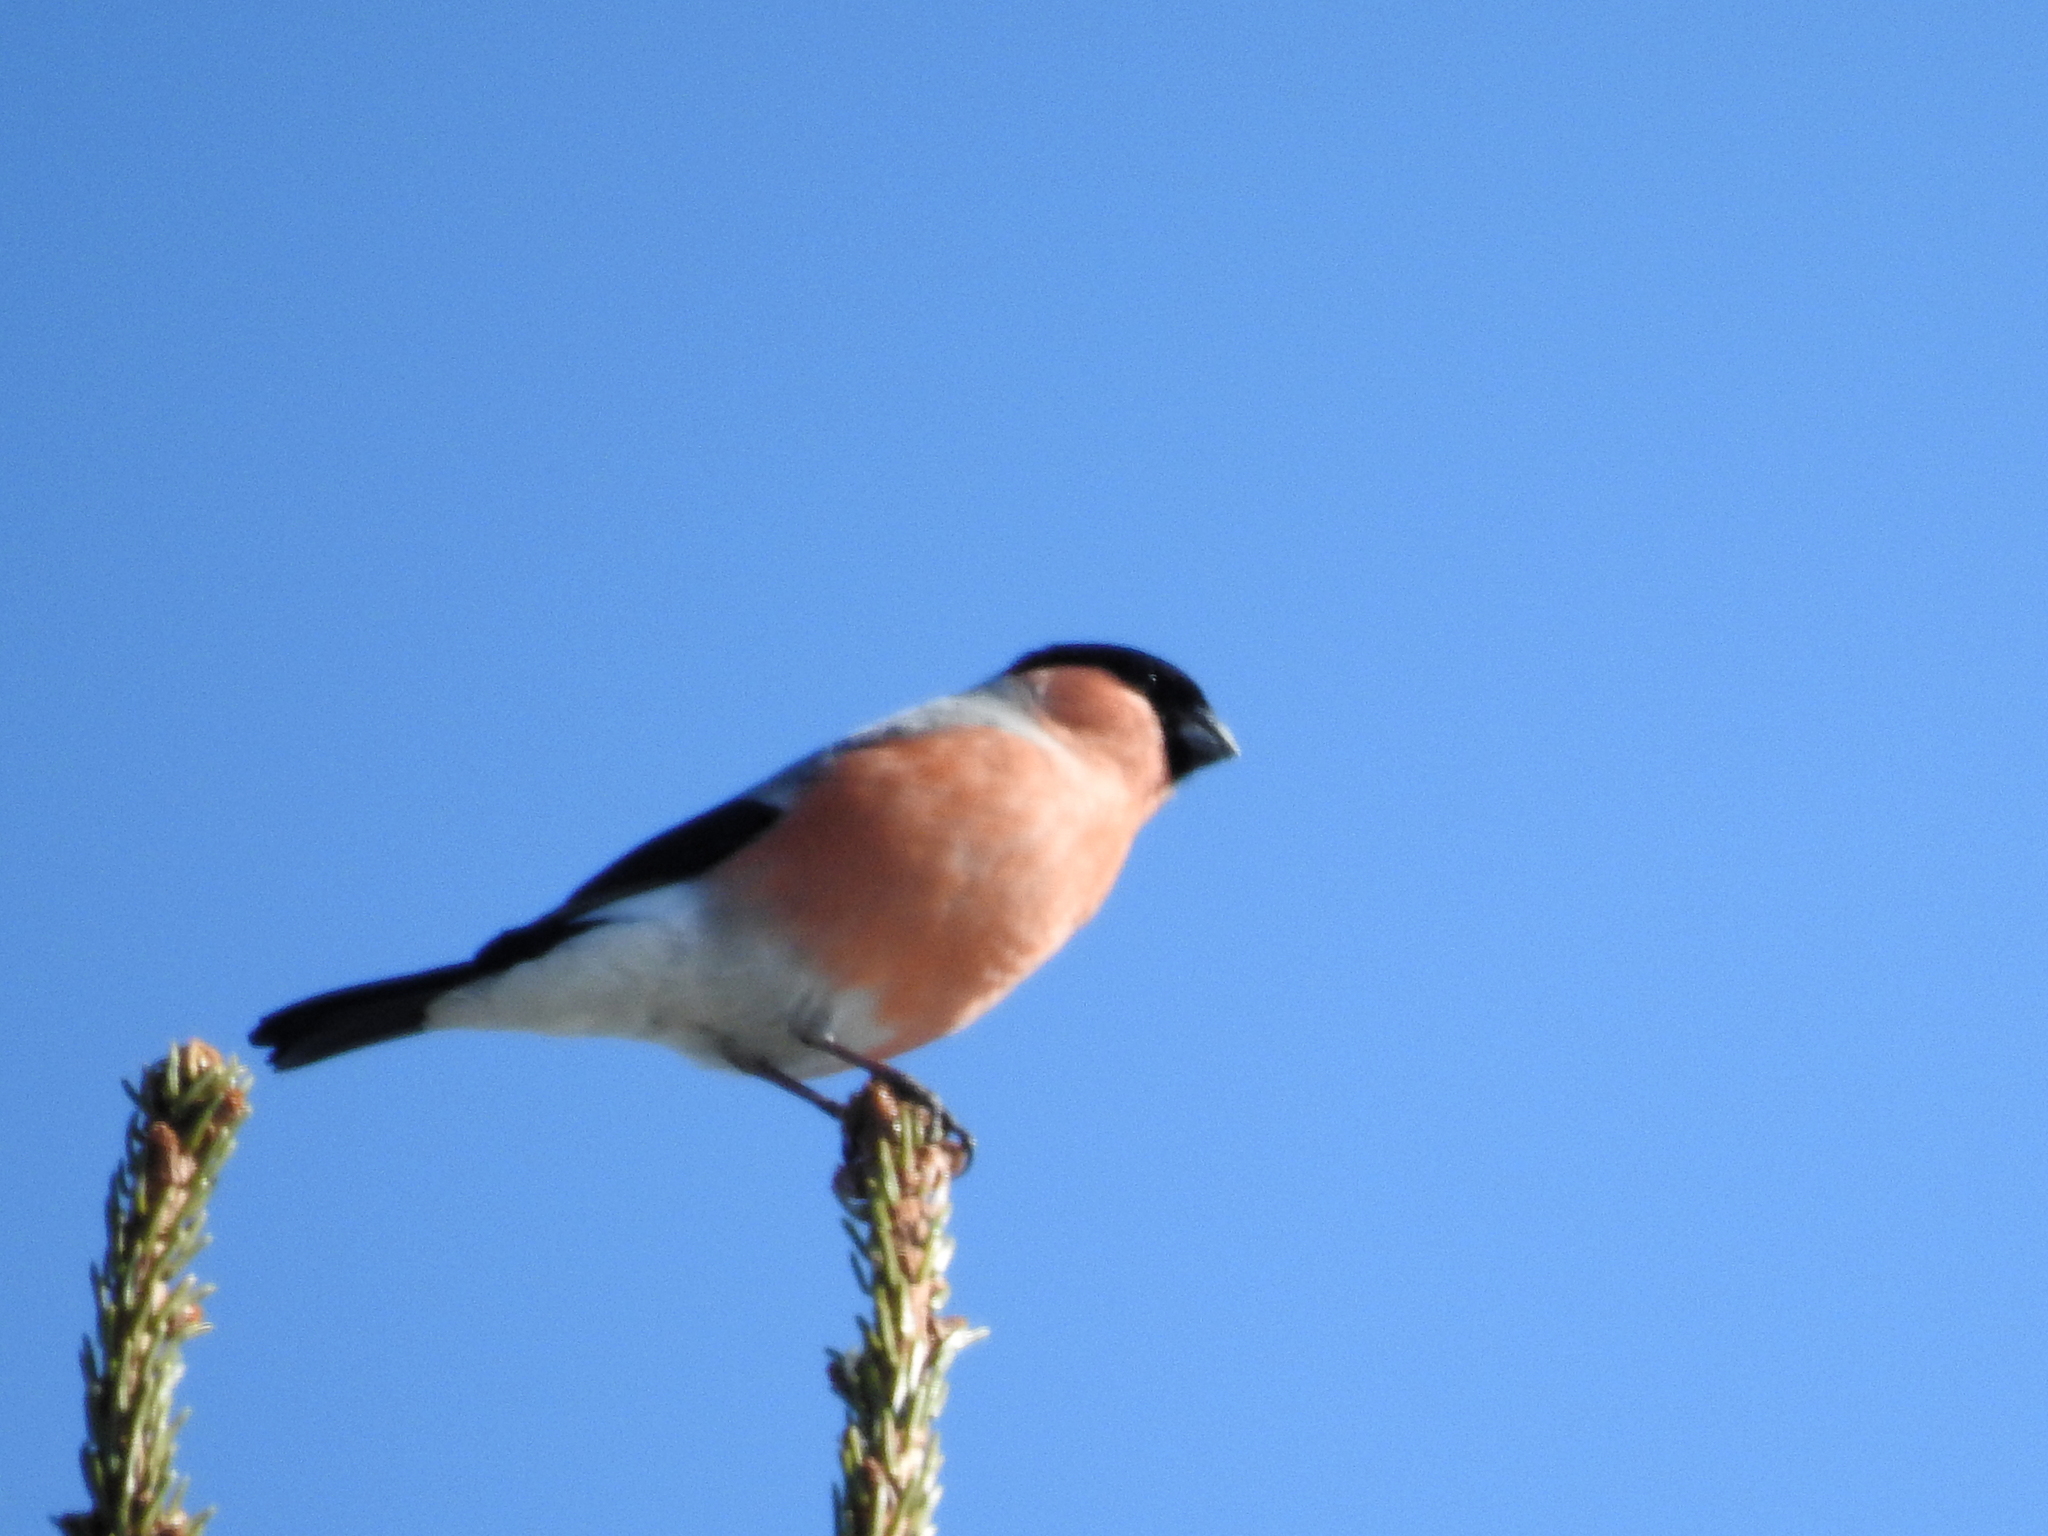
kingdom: Animalia
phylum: Chordata
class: Aves
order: Passeriformes
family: Fringillidae
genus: Pyrrhula
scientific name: Pyrrhula pyrrhula
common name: Eurasian bullfinch
